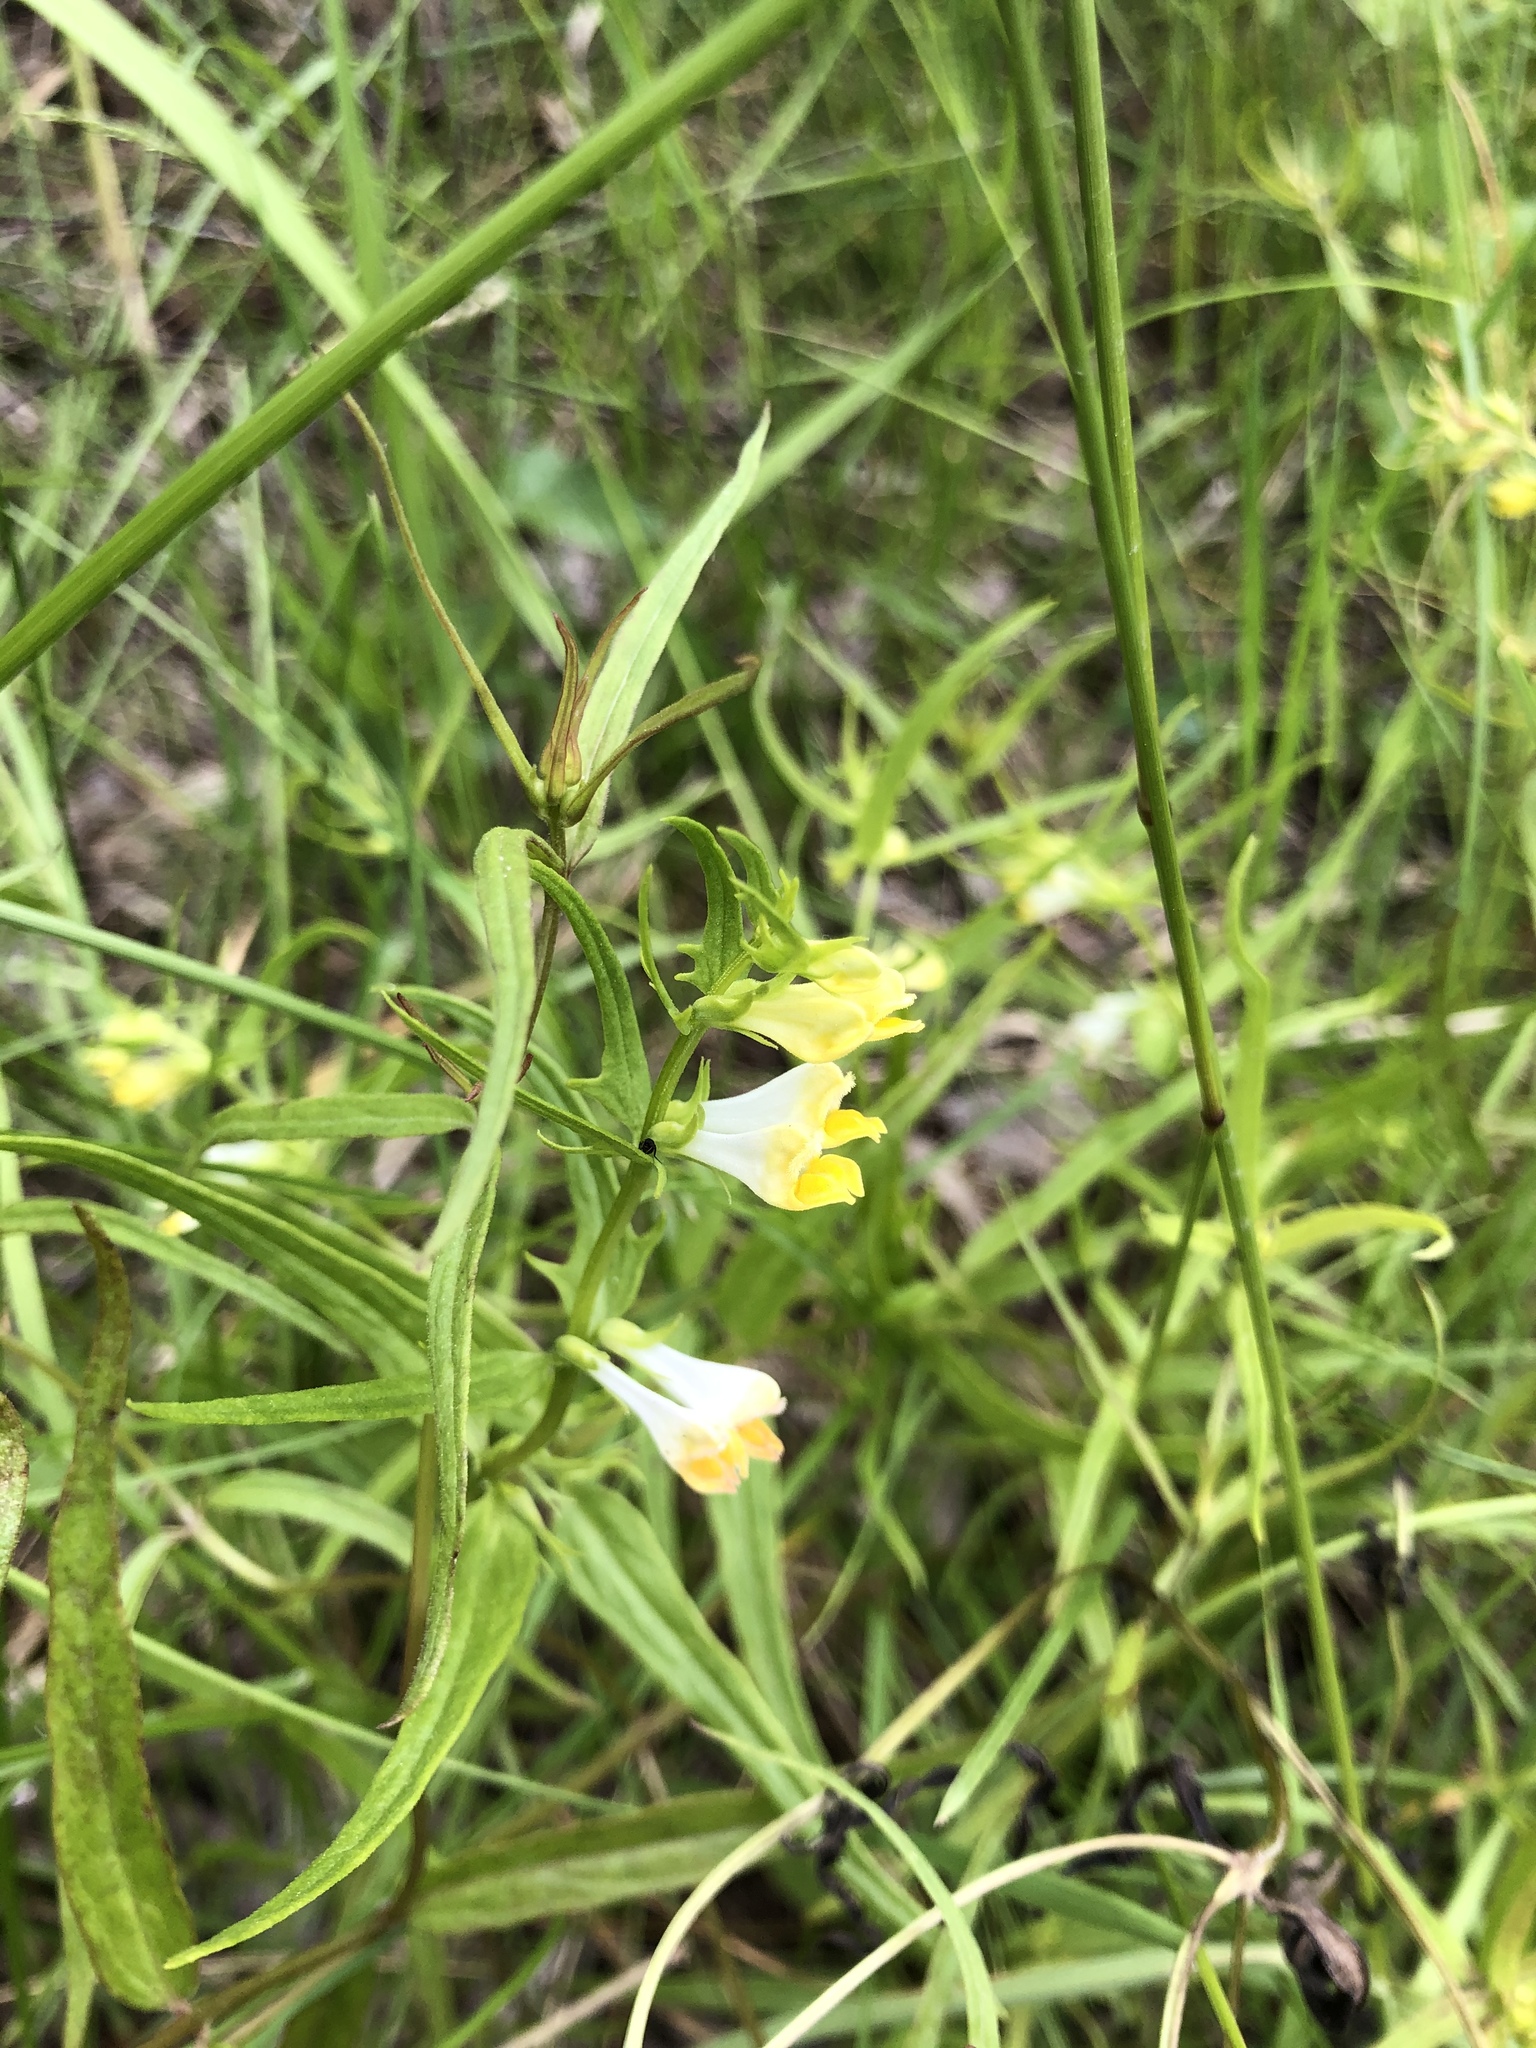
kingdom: Plantae
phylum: Tracheophyta
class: Magnoliopsida
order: Lamiales
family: Orobanchaceae
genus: Melampyrum
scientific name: Melampyrum pratense
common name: Common cow-wheat
